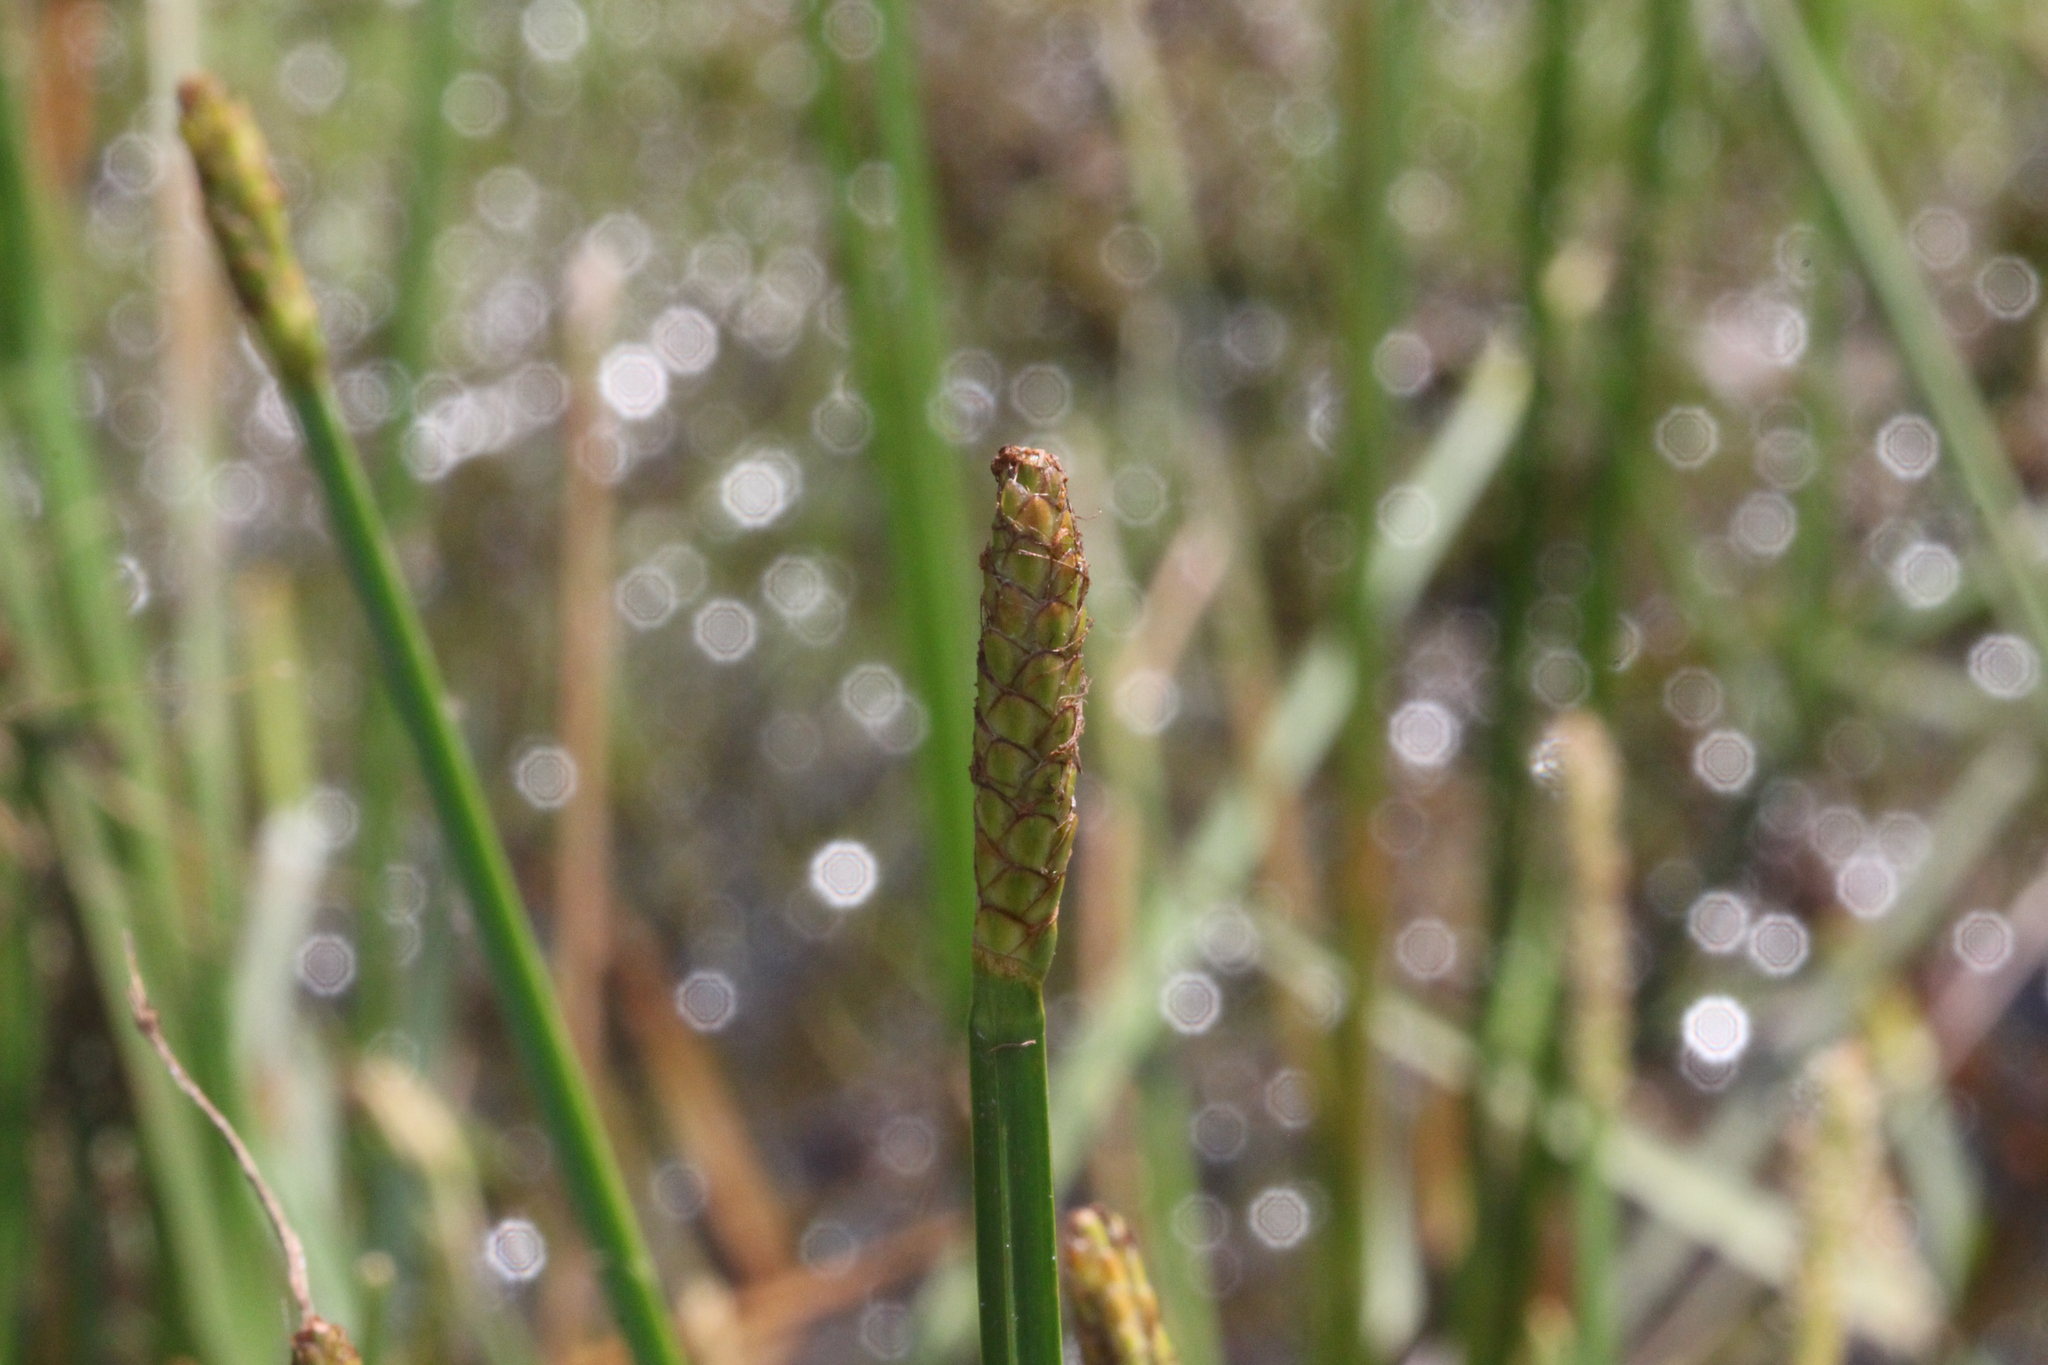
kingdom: Plantae
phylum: Tracheophyta
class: Liliopsida
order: Poales
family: Cyperaceae
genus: Eleocharis
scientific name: Eleocharis quadrangulata
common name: Square-stem spike-rush
